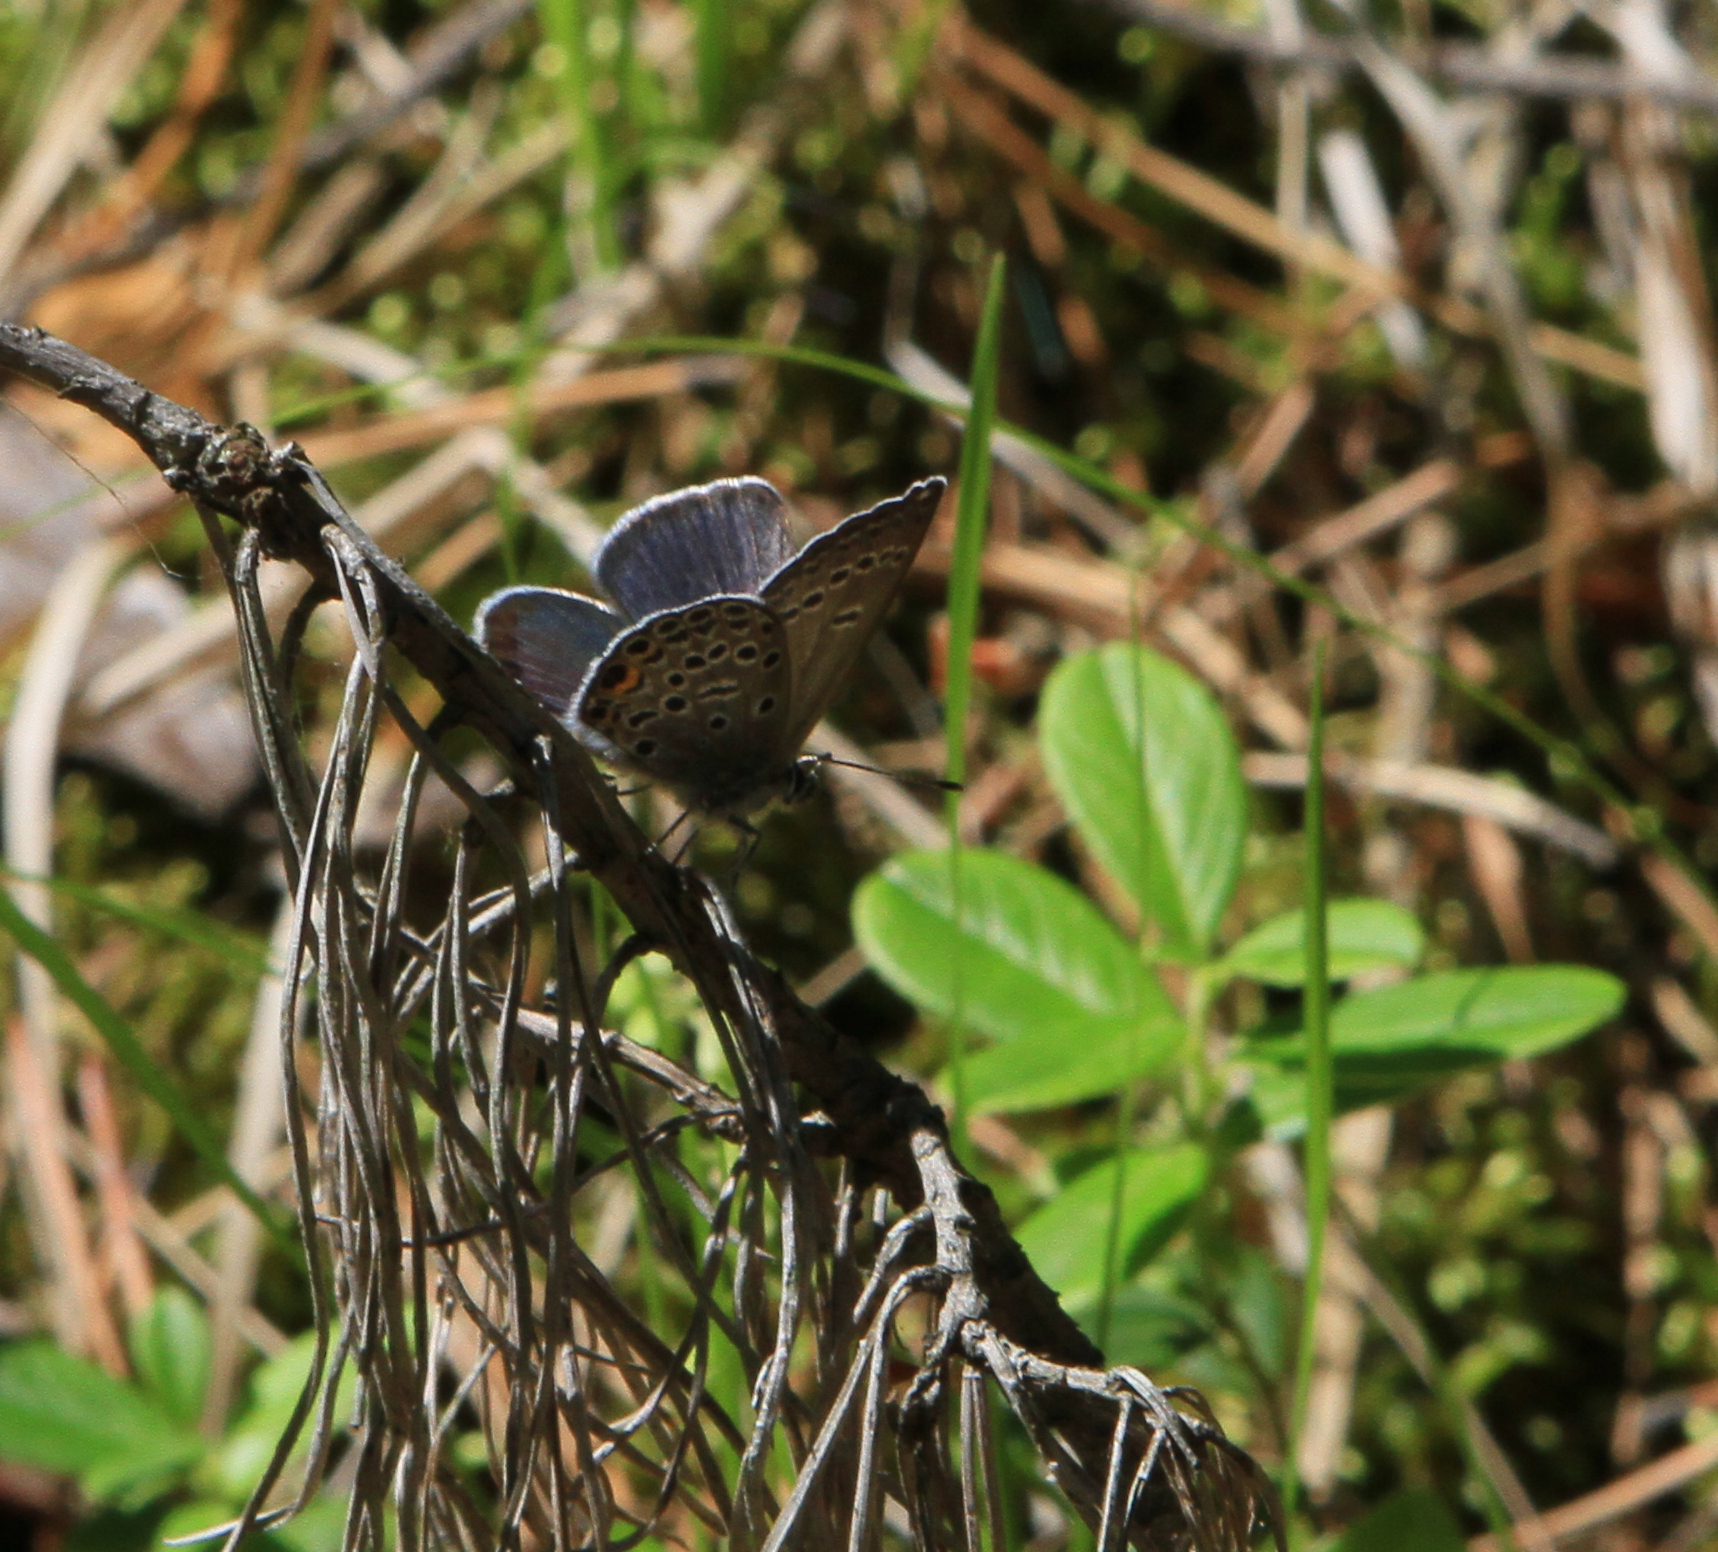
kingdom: Animalia
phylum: Arthropoda
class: Insecta
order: Lepidoptera
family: Lycaenidae
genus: Vacciniina
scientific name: Vacciniina optilete
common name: Cranberry blue
